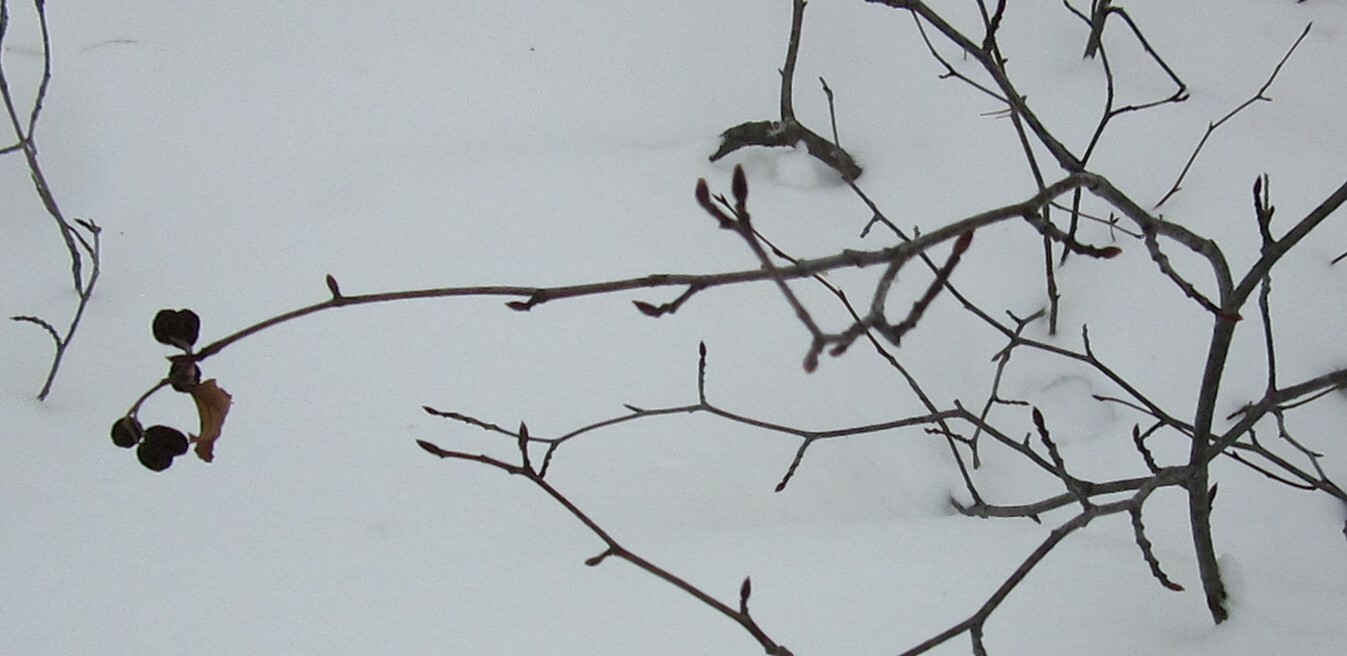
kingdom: Plantae
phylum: Tracheophyta
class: Magnoliopsida
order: Fagales
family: Betulaceae
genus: Alnus
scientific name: Alnus alnobetula
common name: Green alder
